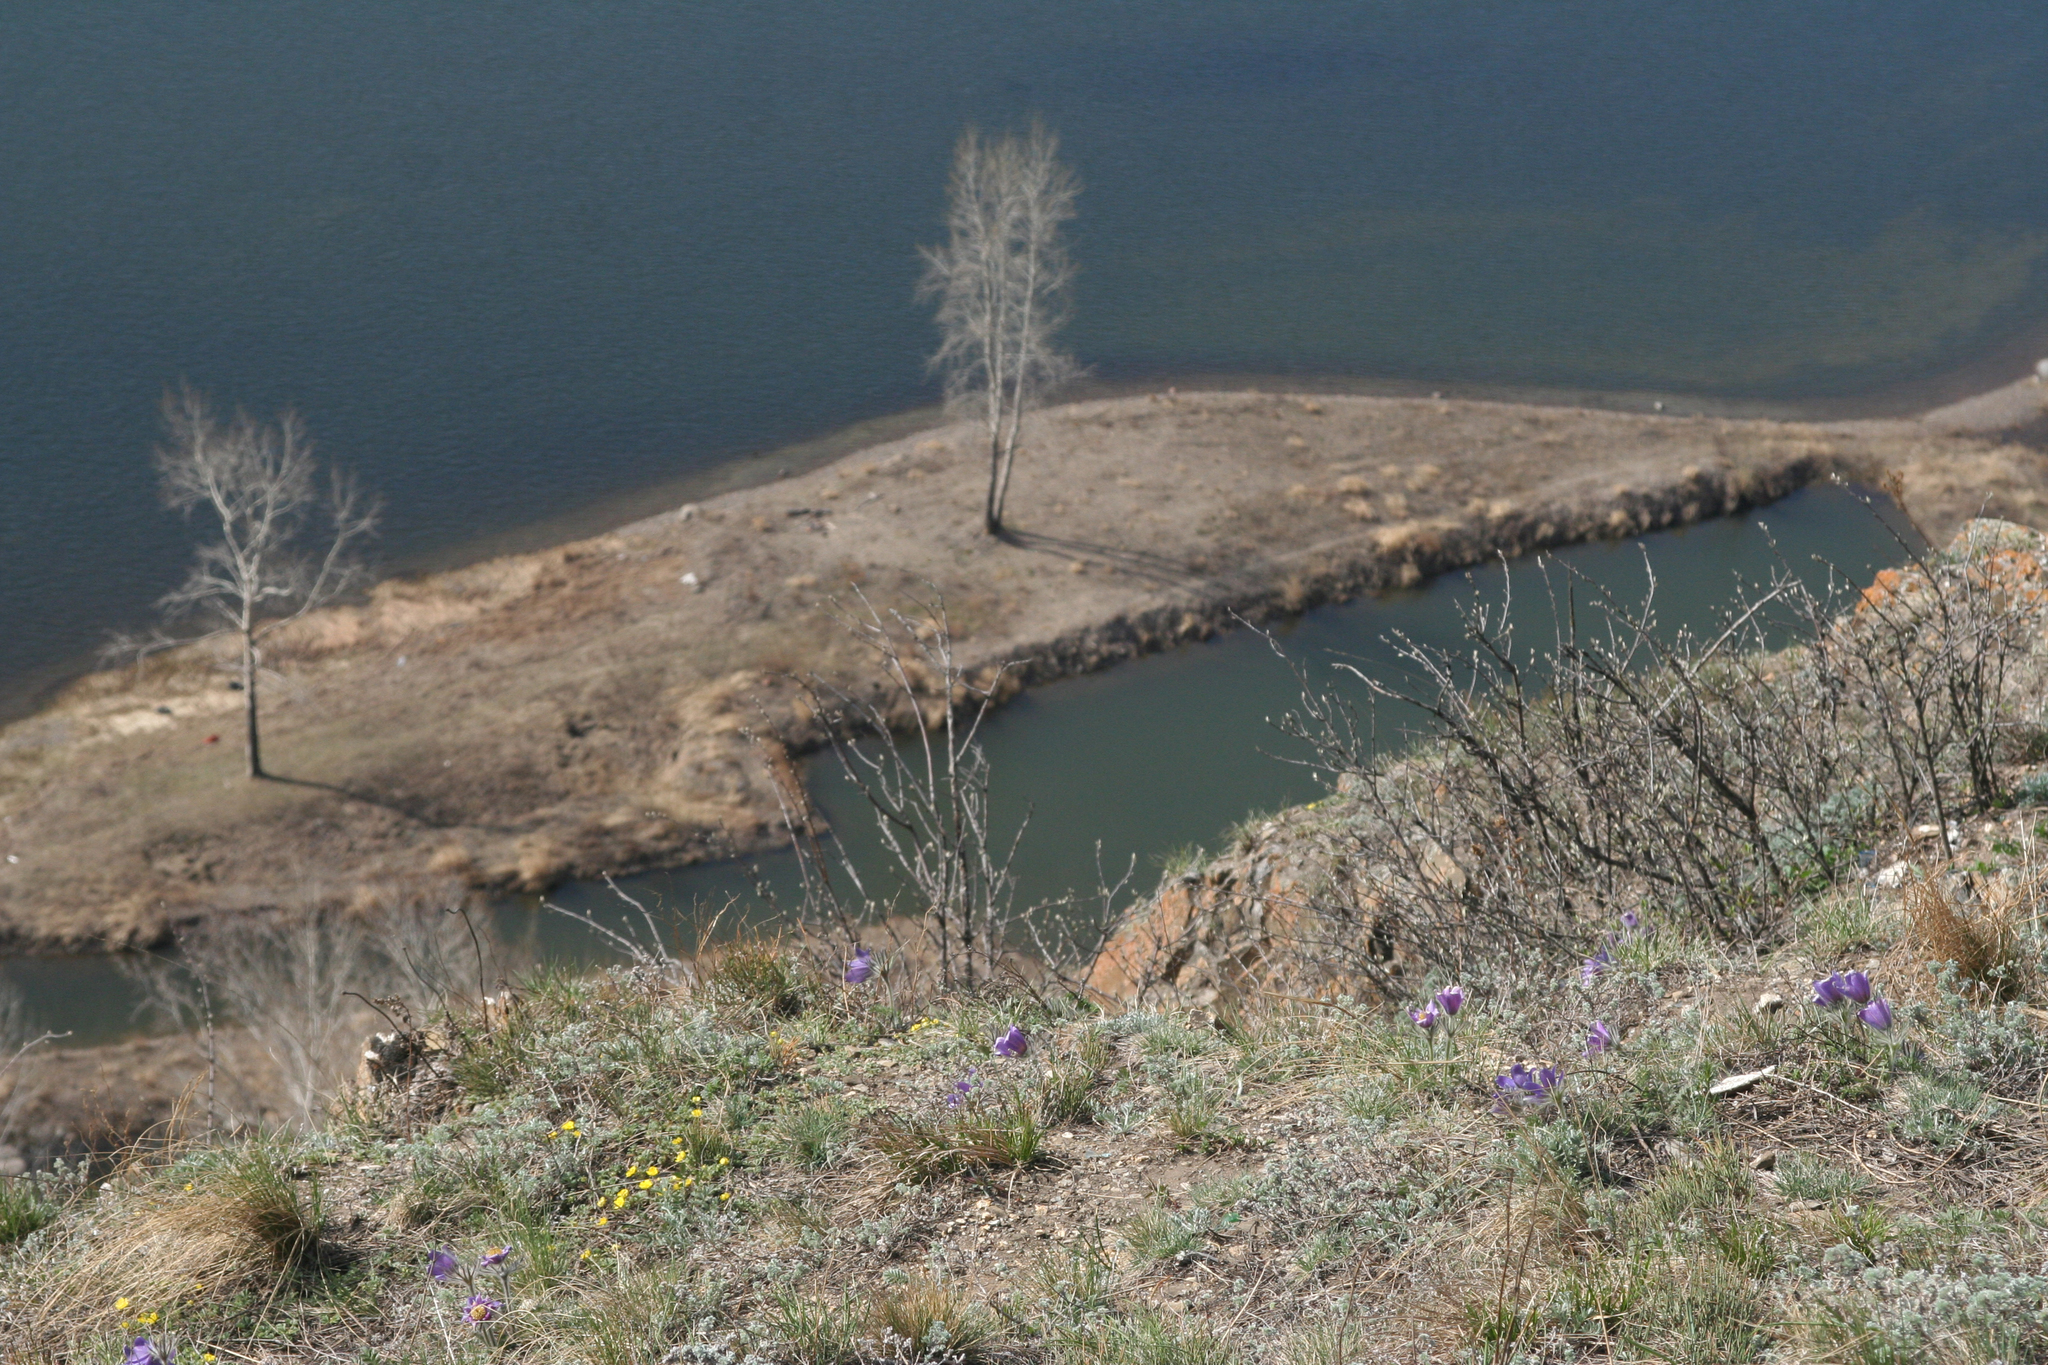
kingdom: Plantae
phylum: Tracheophyta
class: Magnoliopsida
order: Fagales
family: Betulaceae
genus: Betula
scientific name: Betula pendula
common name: Silver birch
